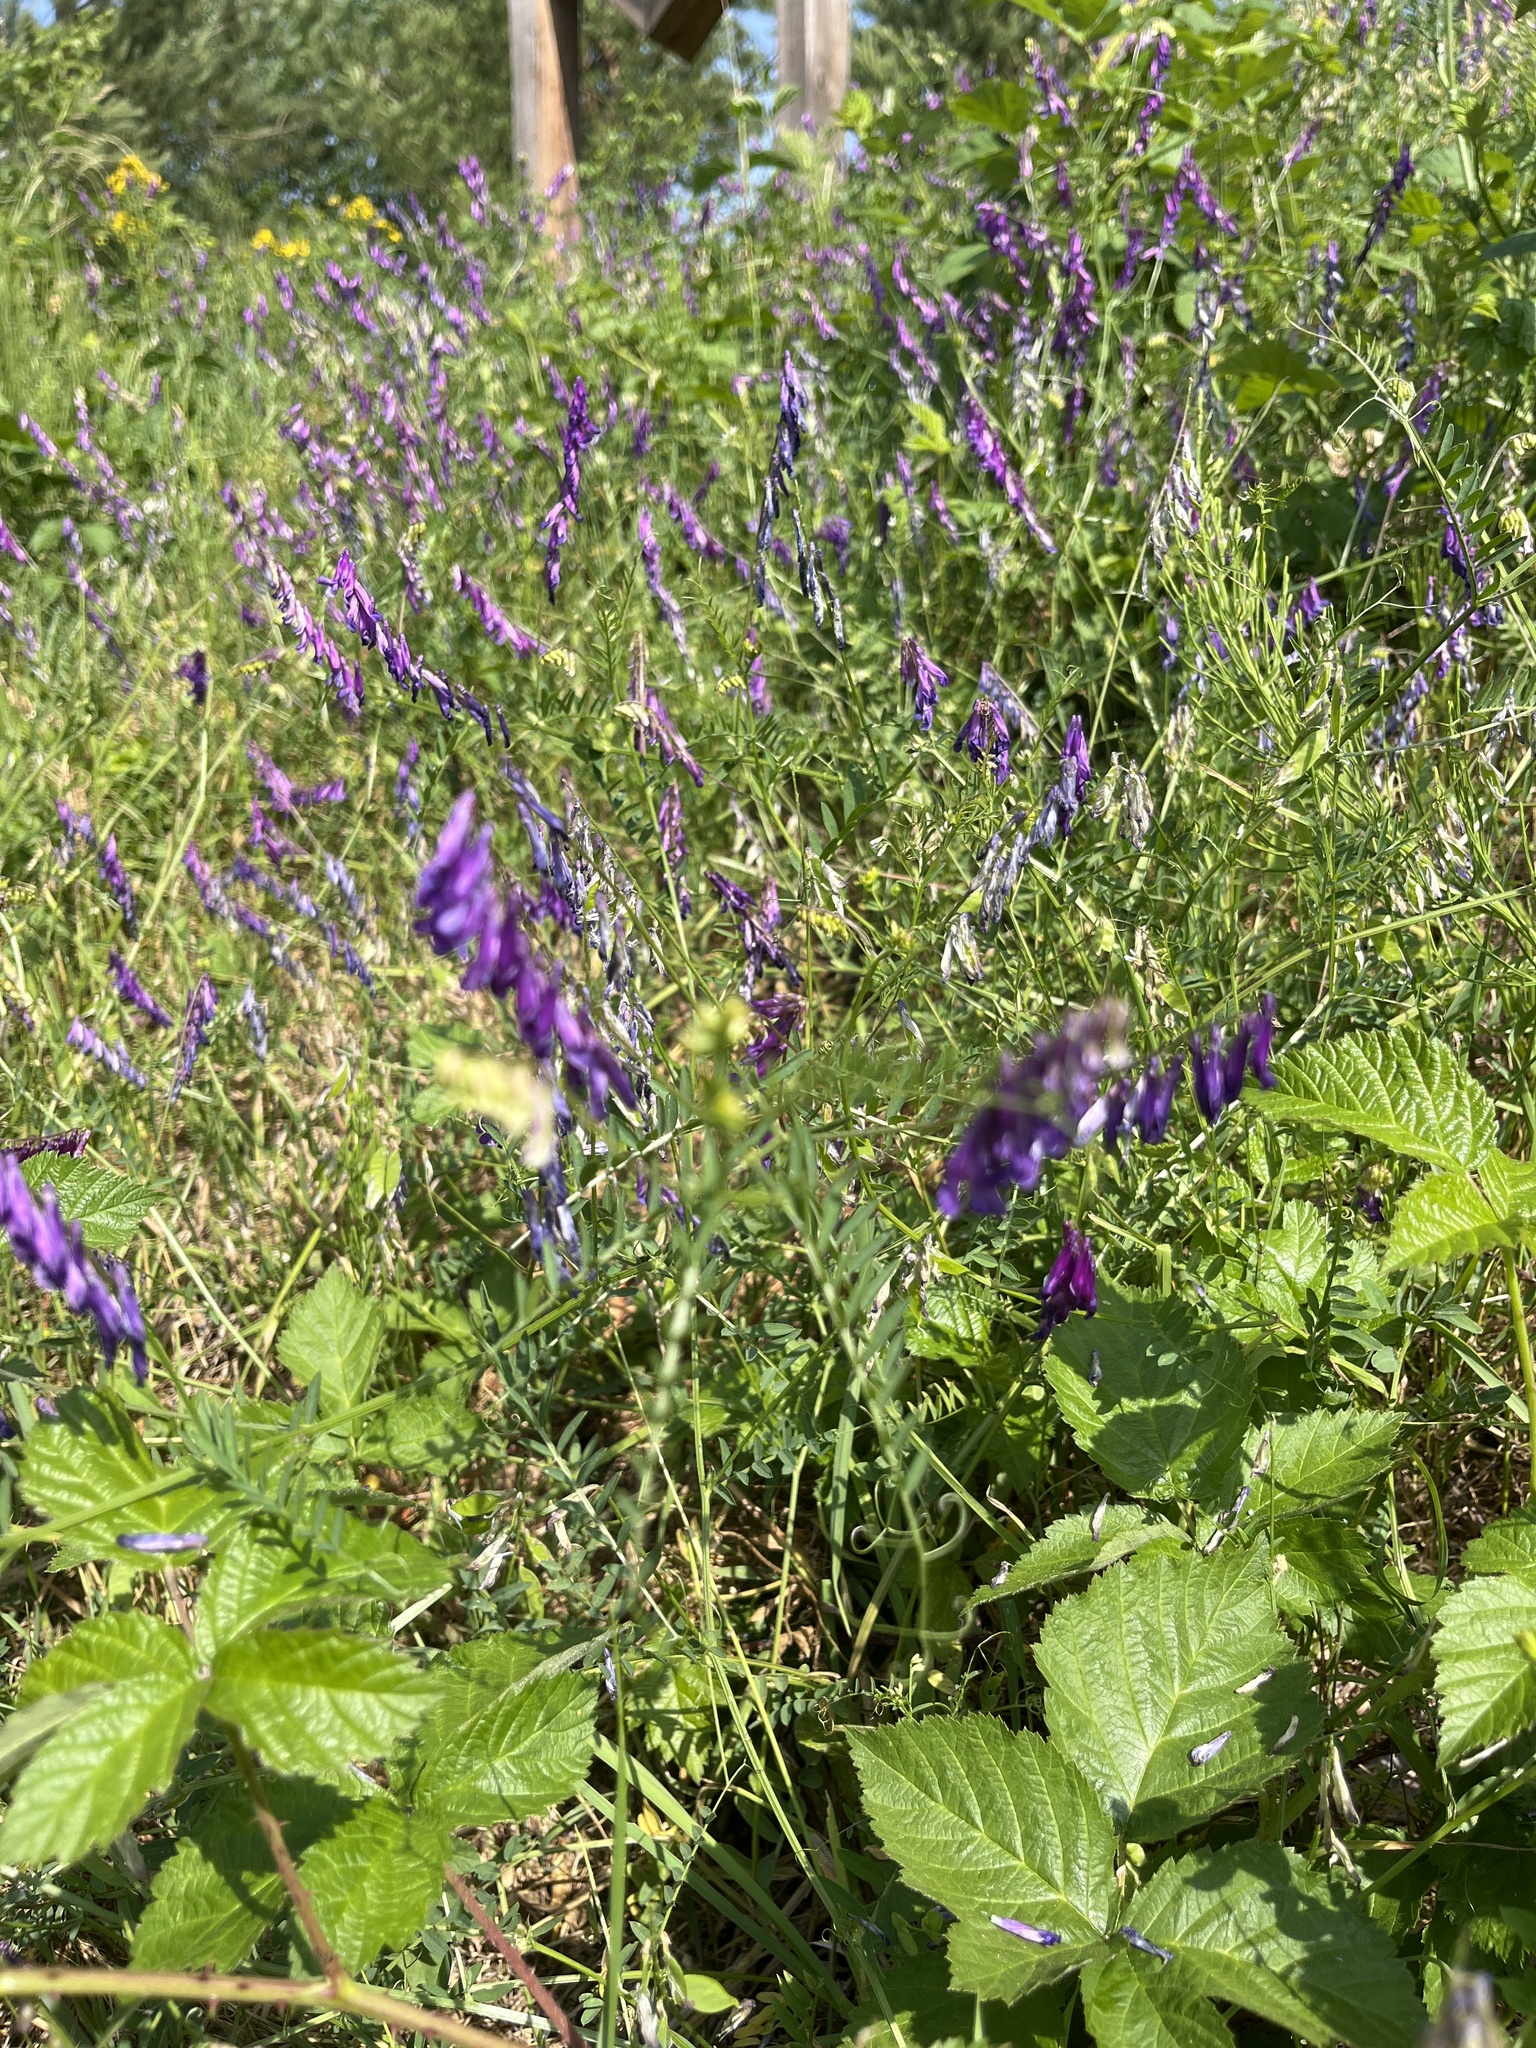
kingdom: Plantae
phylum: Tracheophyta
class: Magnoliopsida
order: Fabales
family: Fabaceae
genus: Vicia
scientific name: Vicia tenuifolia
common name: Fine-leaved vetch
